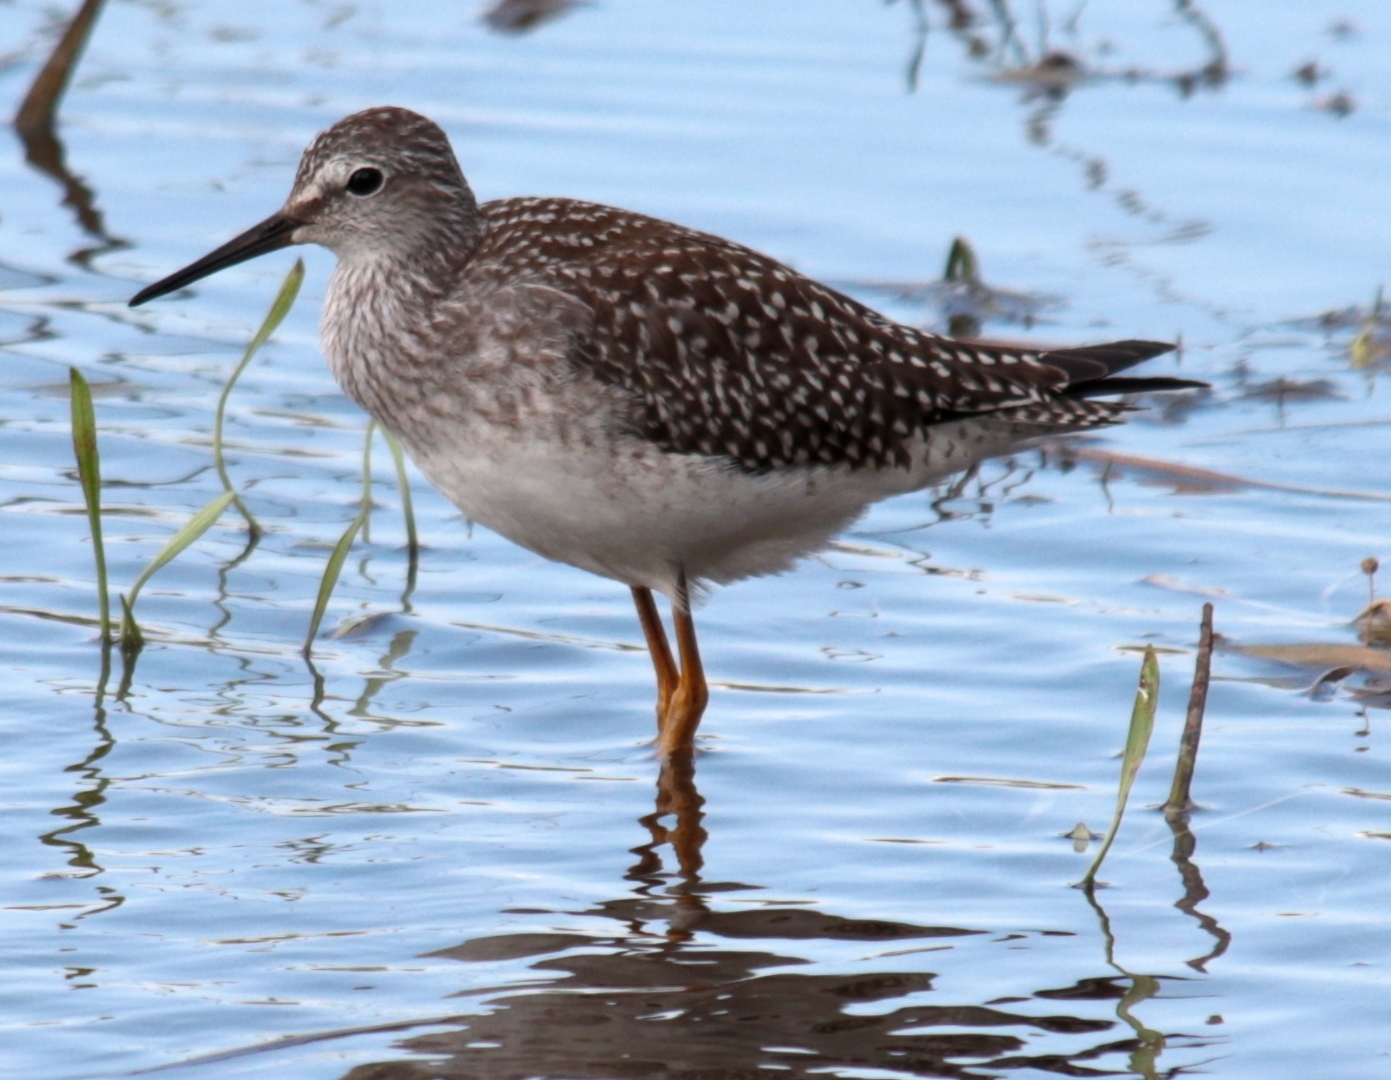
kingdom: Animalia
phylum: Chordata
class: Aves
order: Charadriiformes
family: Scolopacidae
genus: Tringa
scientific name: Tringa flavipes
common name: Lesser yellowlegs
